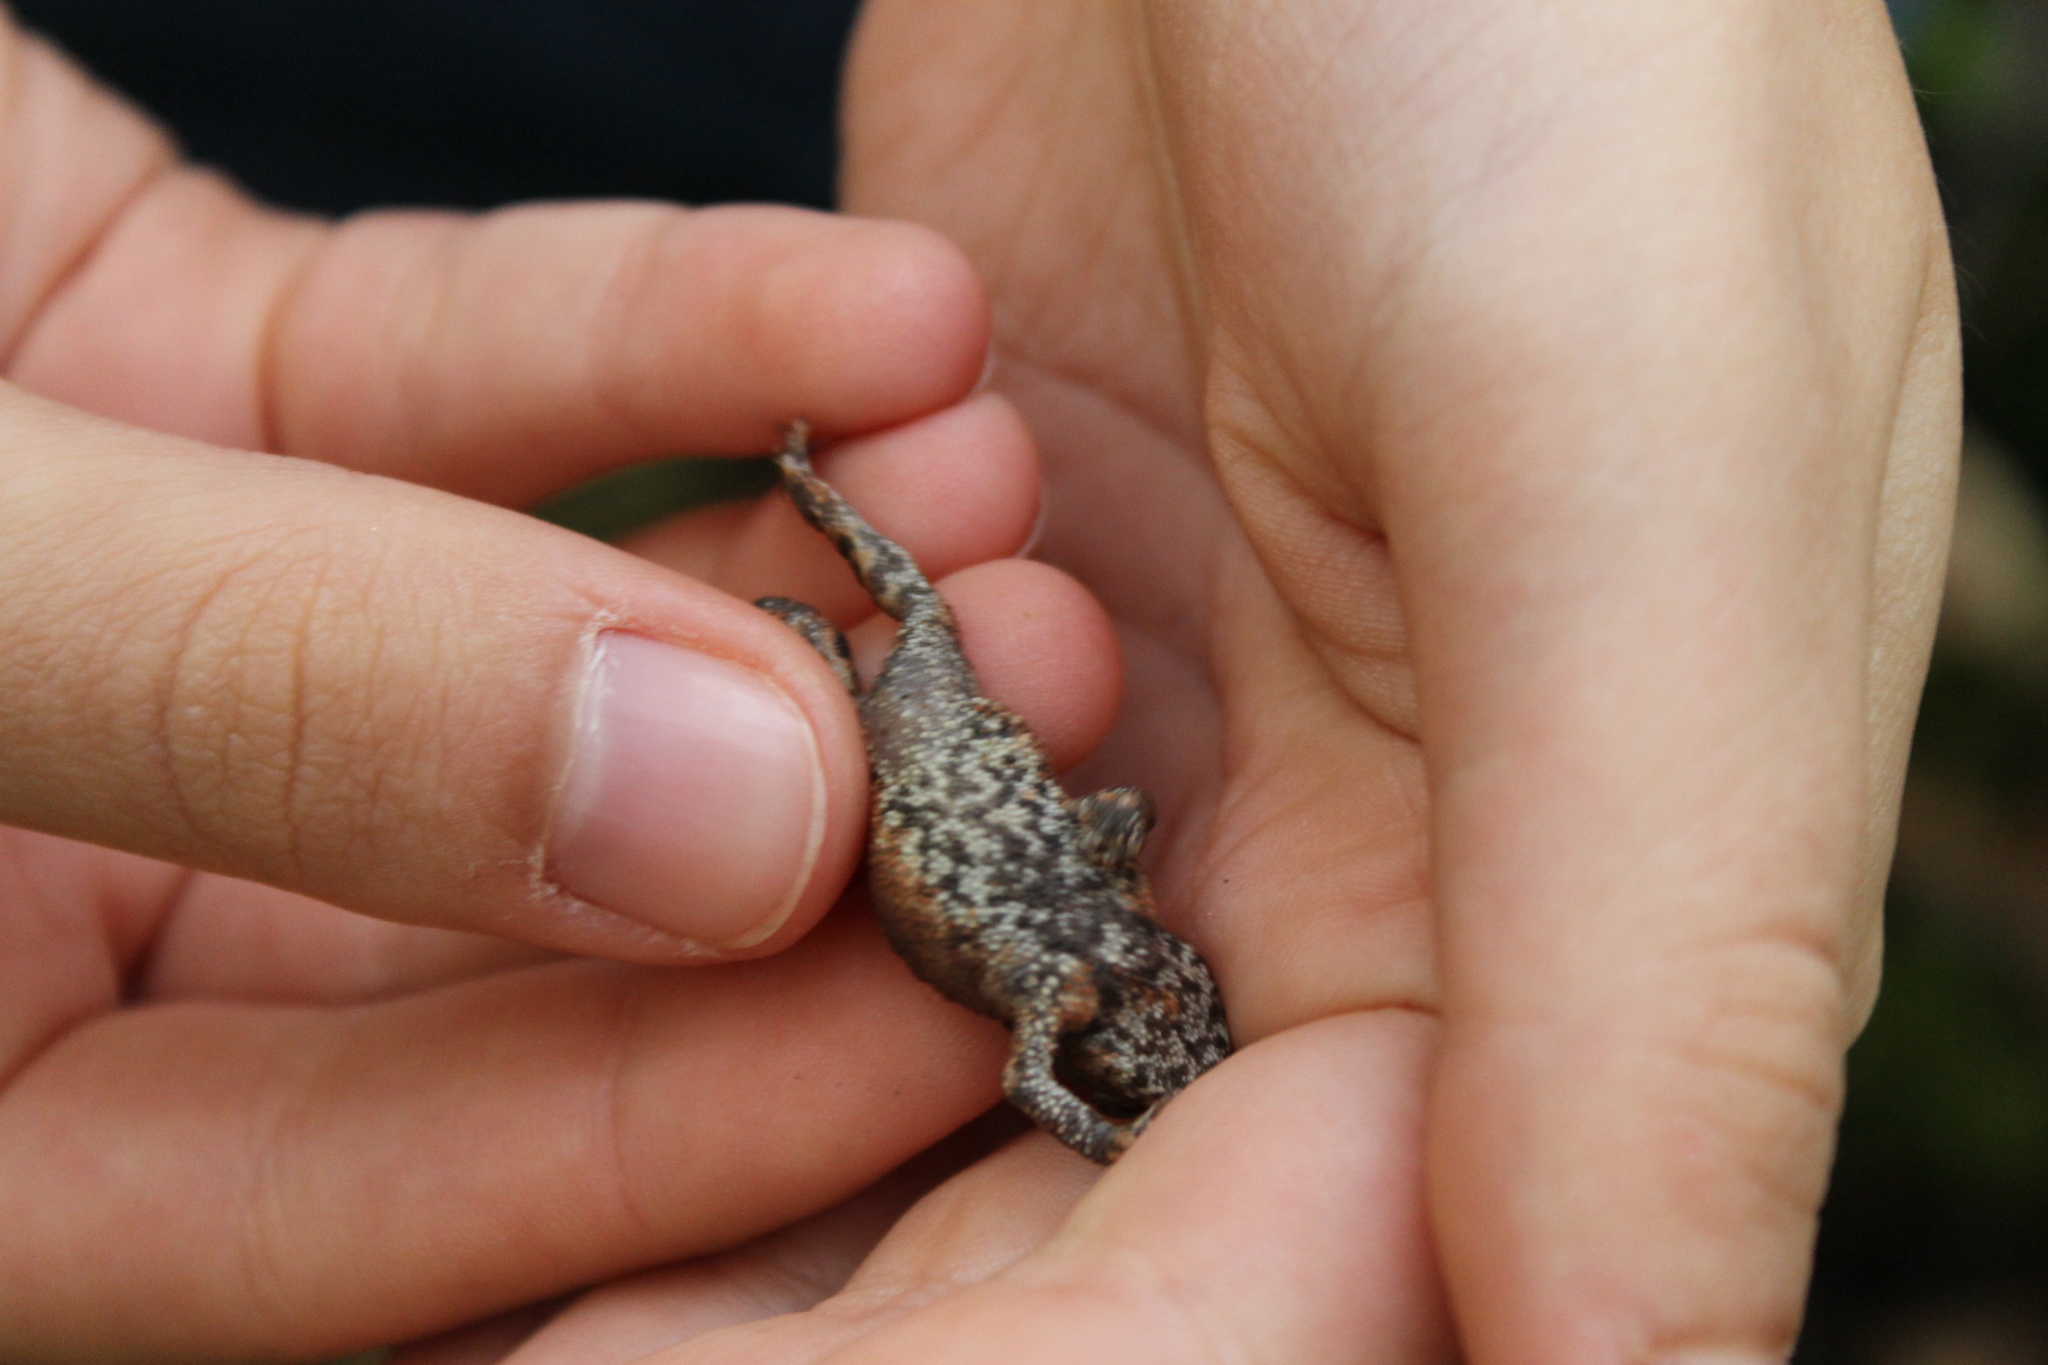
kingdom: Animalia
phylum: Chordata
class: Amphibia
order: Anura
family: Bufonidae
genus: Bufo
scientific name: Bufo bufo
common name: Common toad
